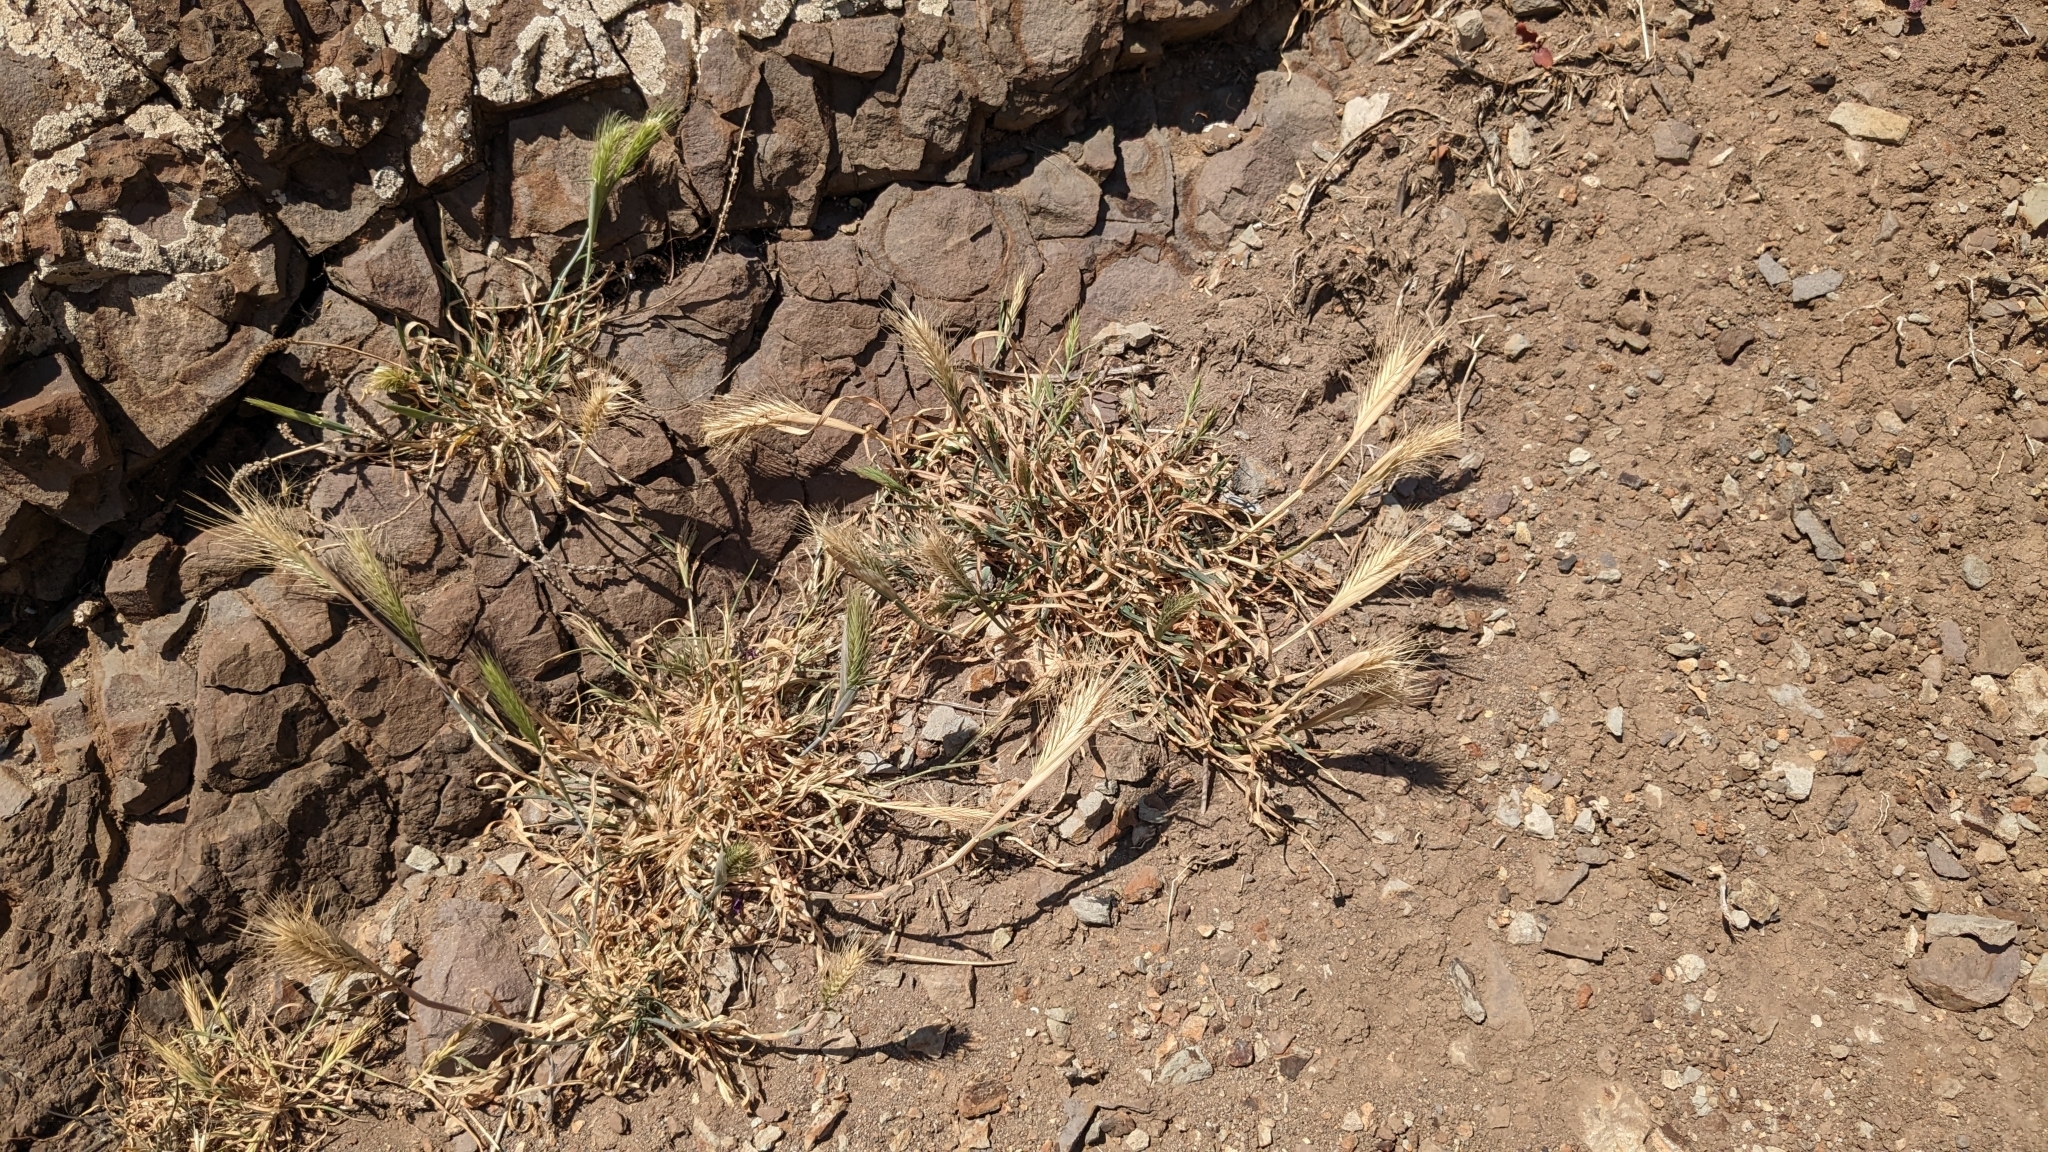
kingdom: Plantae
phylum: Tracheophyta
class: Liliopsida
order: Poales
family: Poaceae
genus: Hordeum
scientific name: Hordeum murinum
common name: Wall barley
